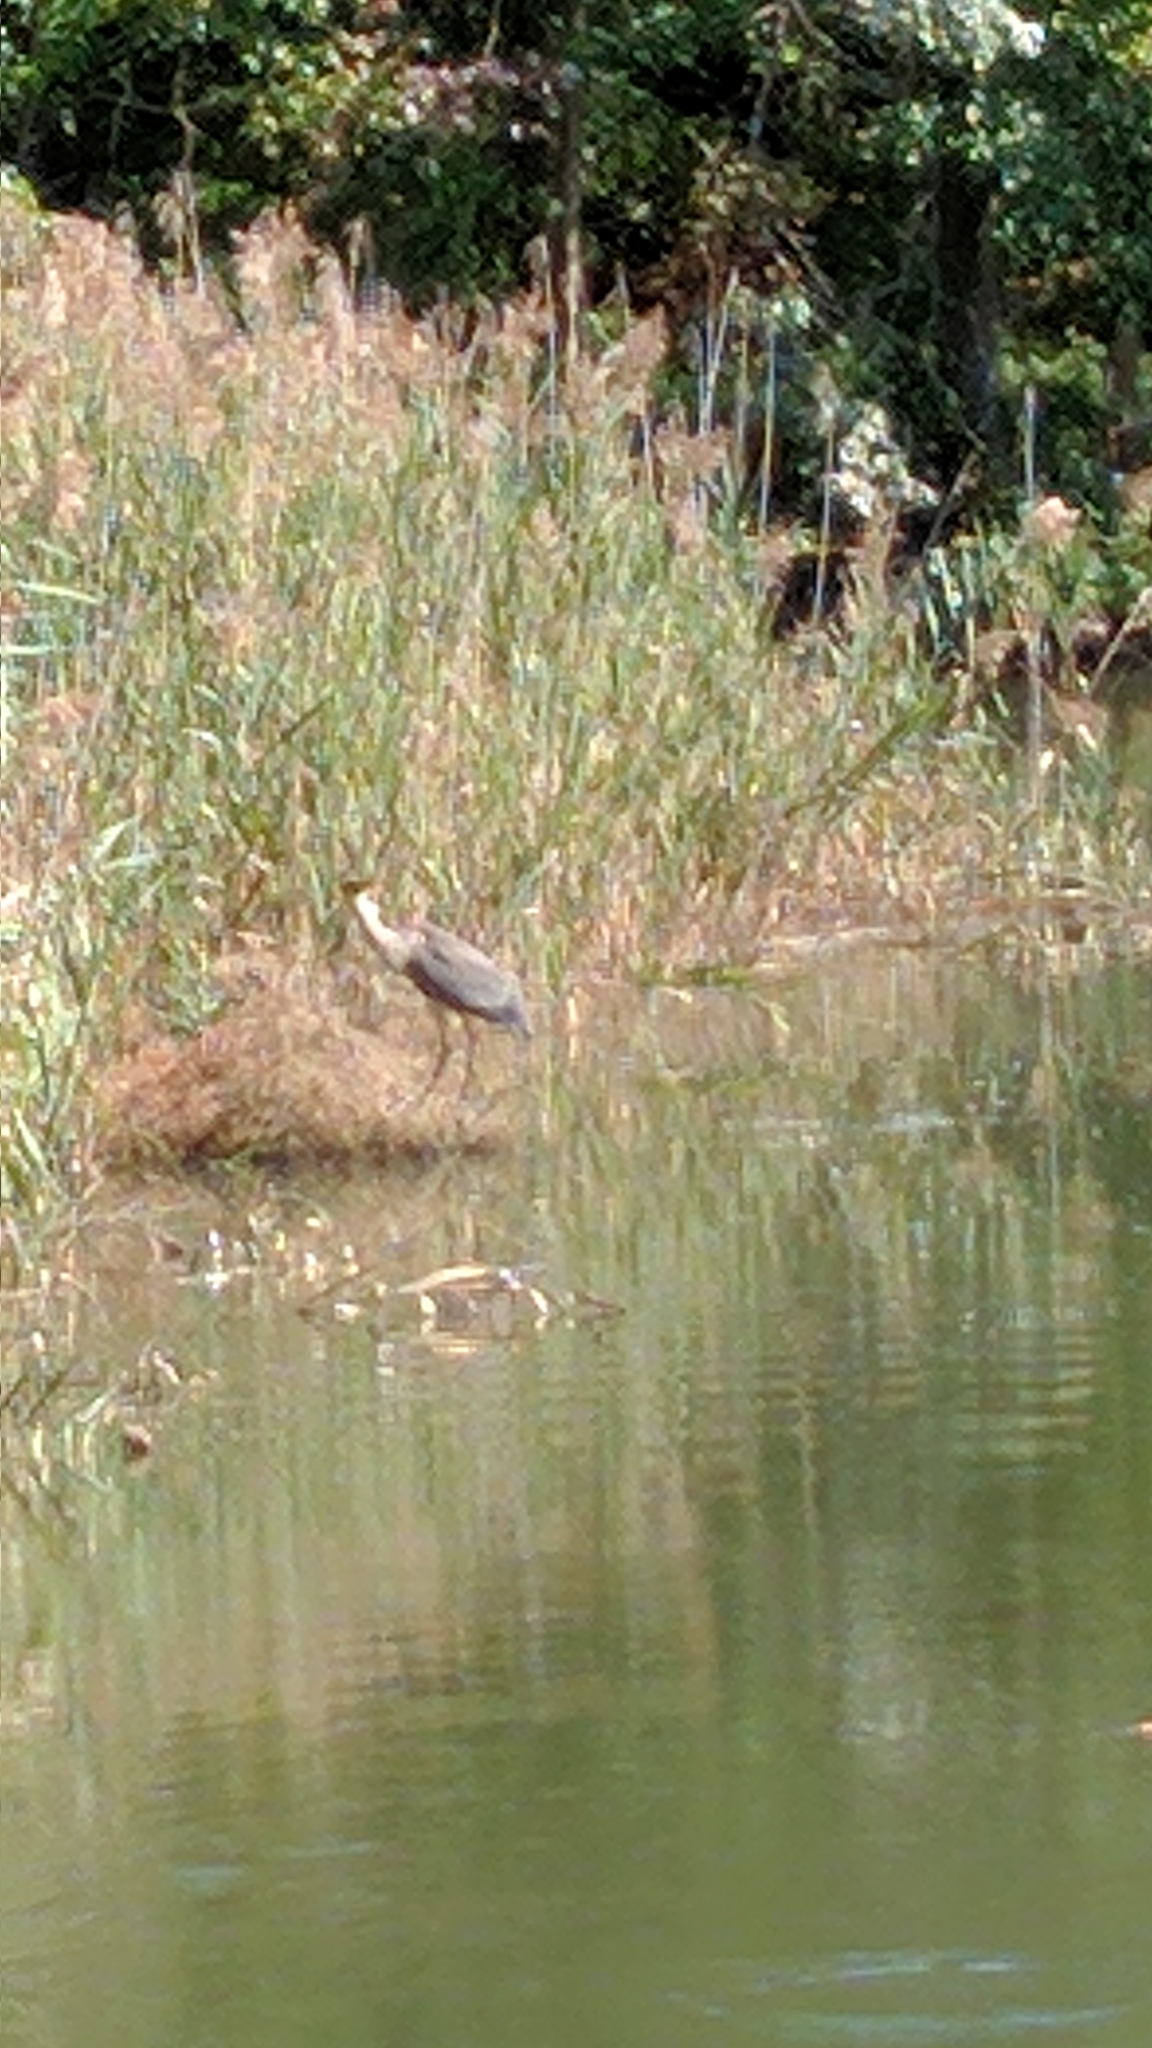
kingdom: Animalia
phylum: Chordata
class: Aves
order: Pelecaniformes
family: Ardeidae
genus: Ardea
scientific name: Ardea herodias
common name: Great blue heron
